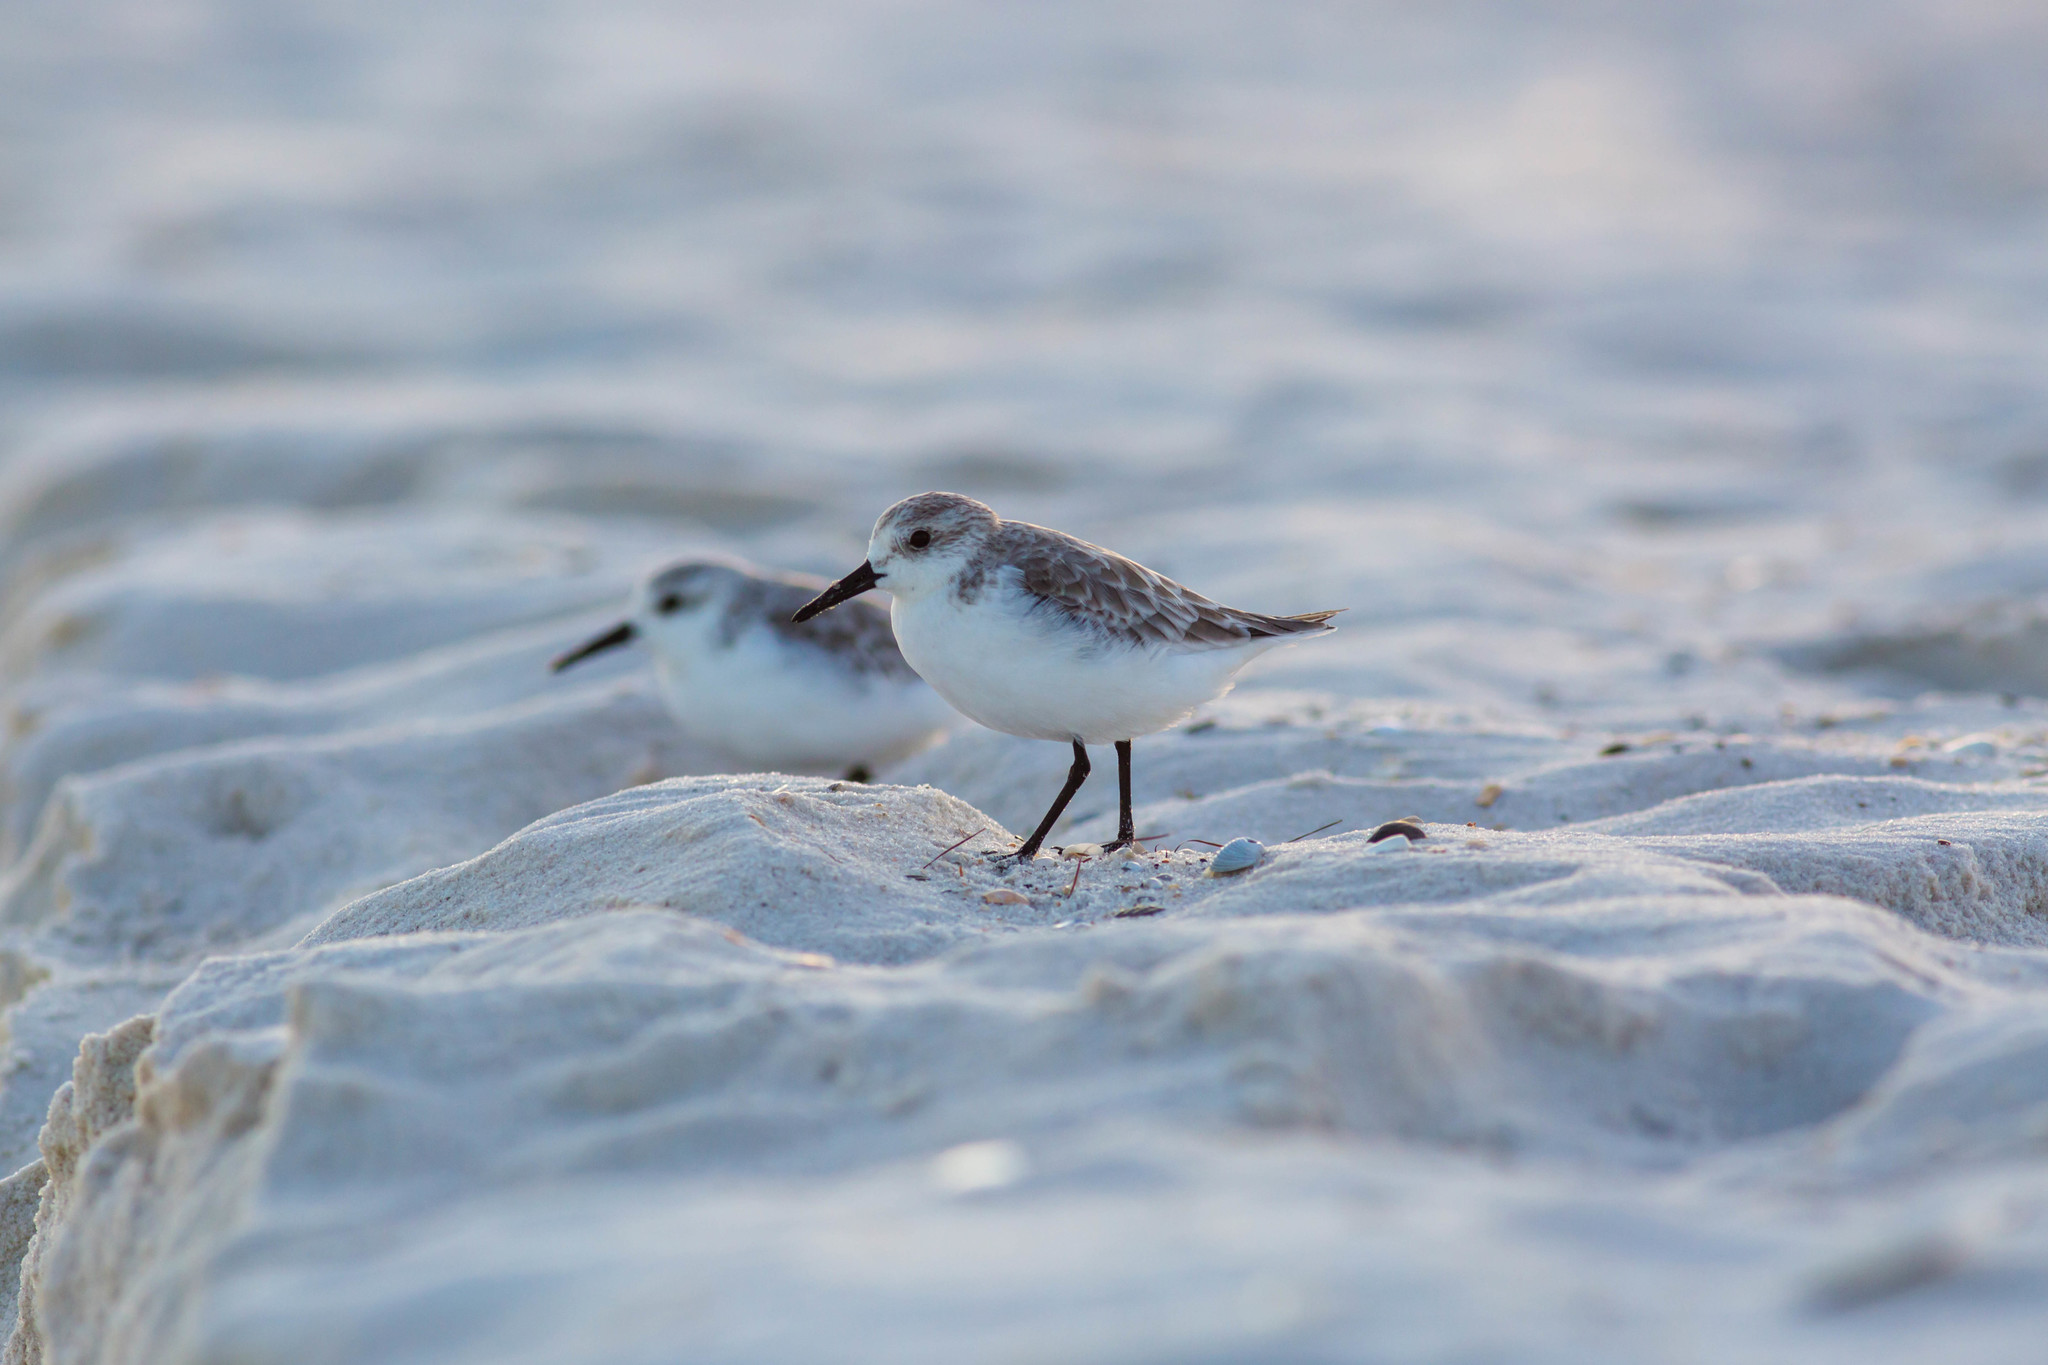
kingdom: Animalia
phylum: Chordata
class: Aves
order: Charadriiformes
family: Scolopacidae
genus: Calidris
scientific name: Calidris alba
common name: Sanderling
